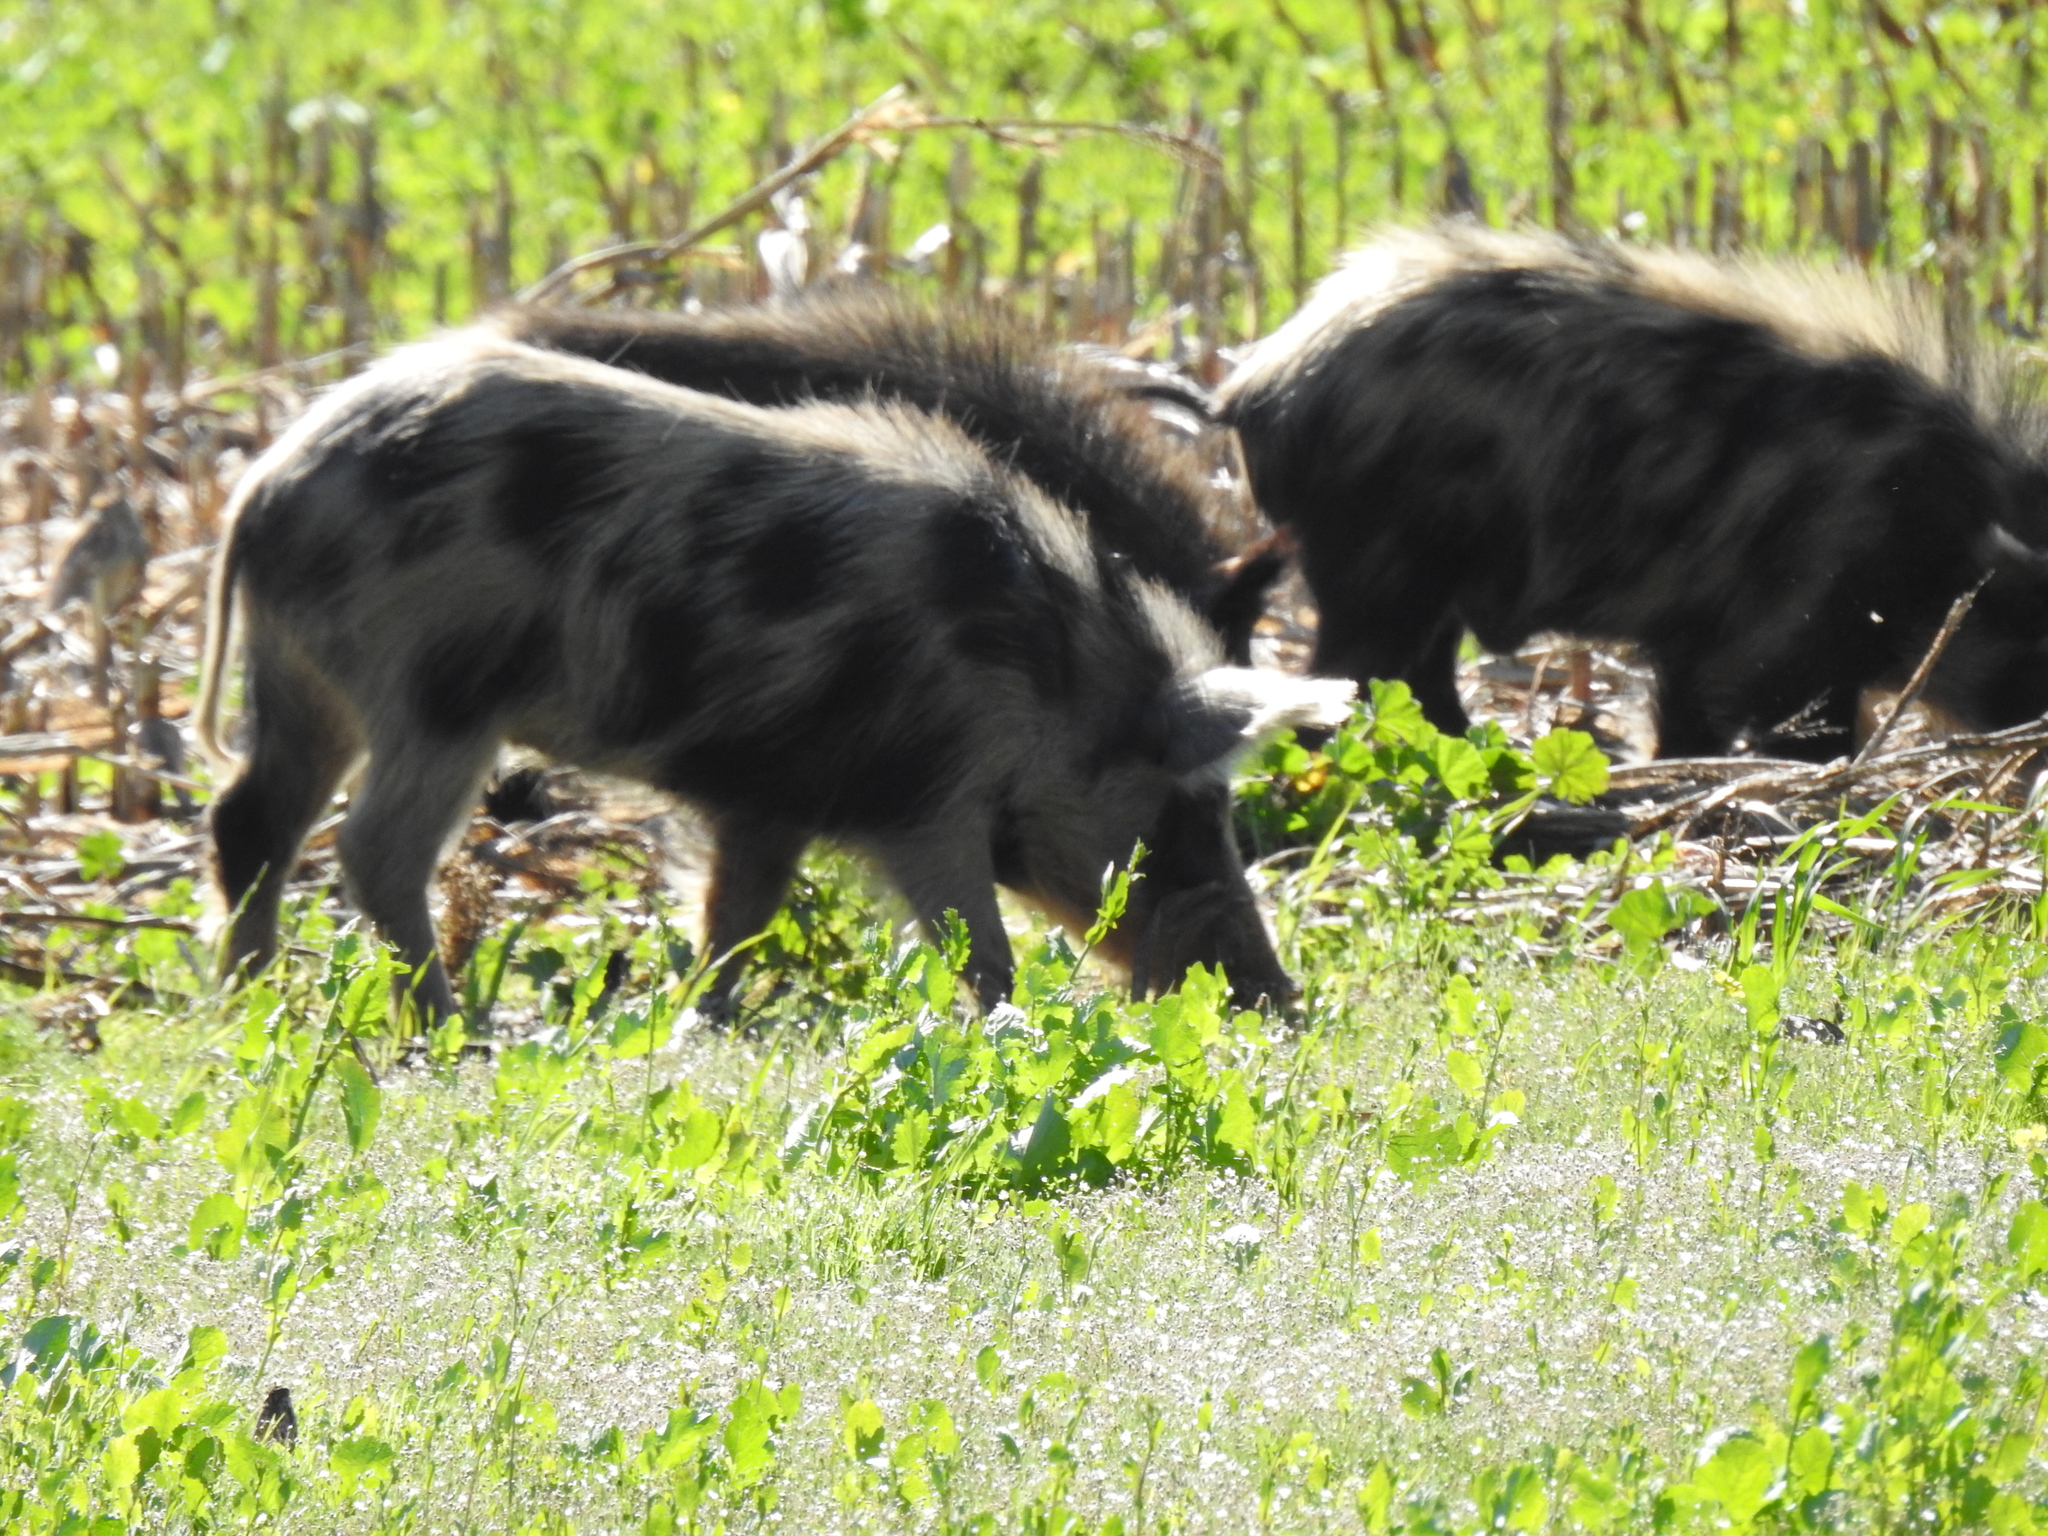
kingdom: Animalia
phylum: Chordata
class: Mammalia
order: Artiodactyla
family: Suidae
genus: Sus
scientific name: Sus scrofa
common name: Wild boar
